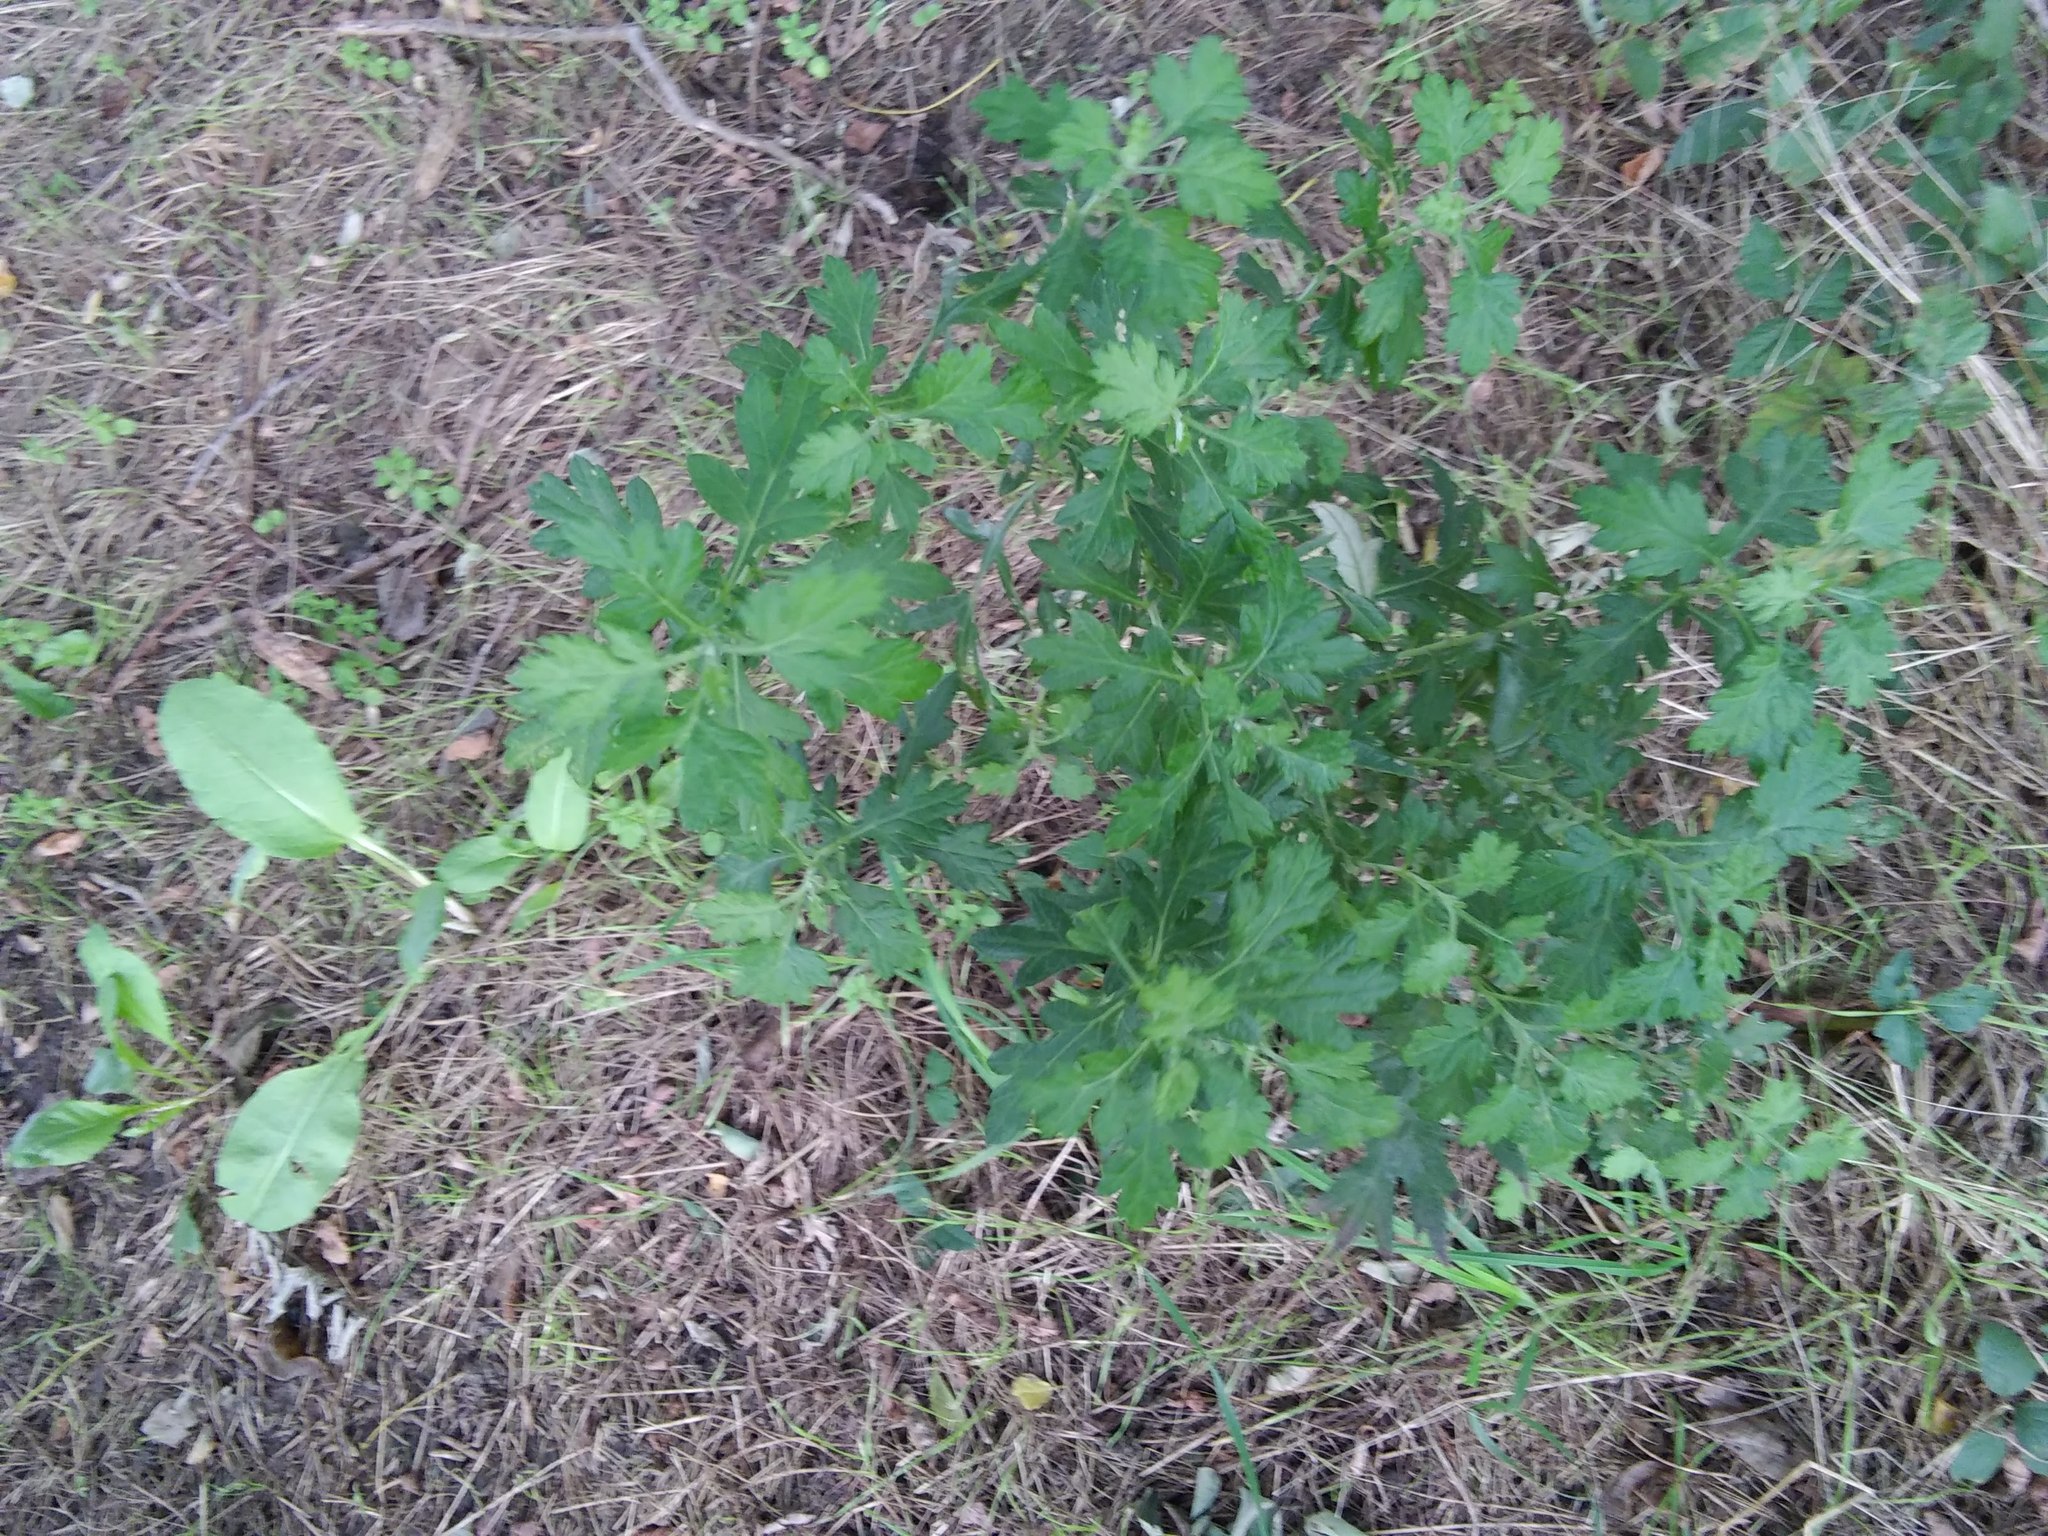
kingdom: Plantae
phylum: Tracheophyta
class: Magnoliopsida
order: Asterales
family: Asteraceae
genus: Artemisia
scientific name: Artemisia vulgaris
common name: Mugwort
